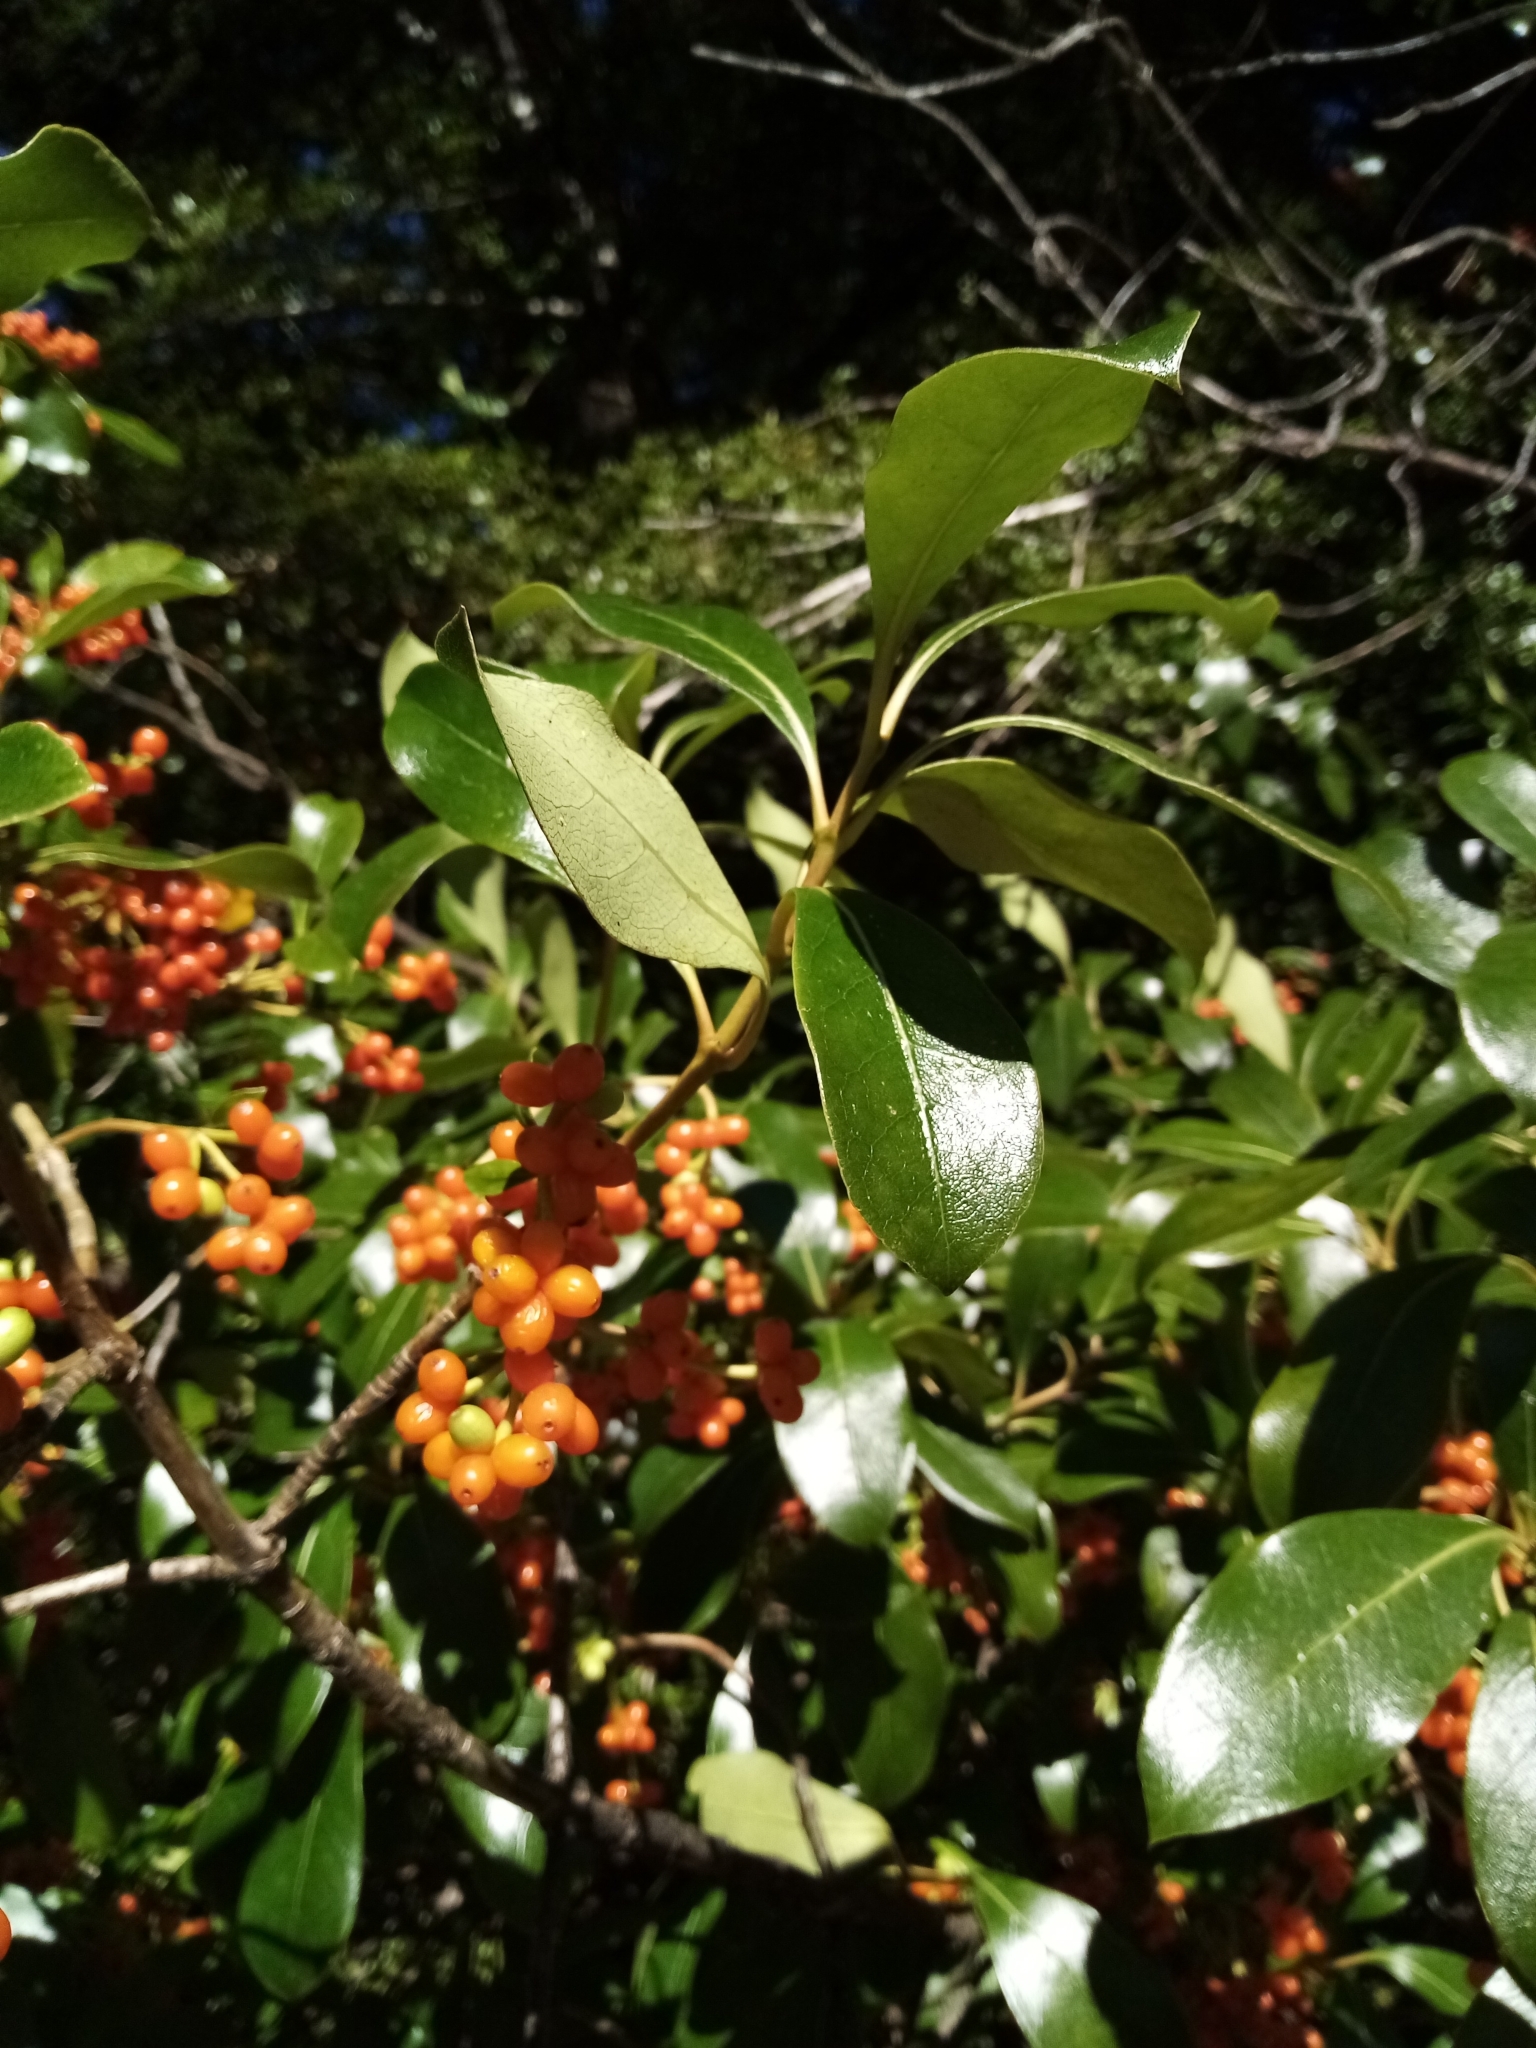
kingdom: Plantae
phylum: Tracheophyta
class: Magnoliopsida
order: Gentianales
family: Rubiaceae
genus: Coprosma
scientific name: Coprosma lucida
